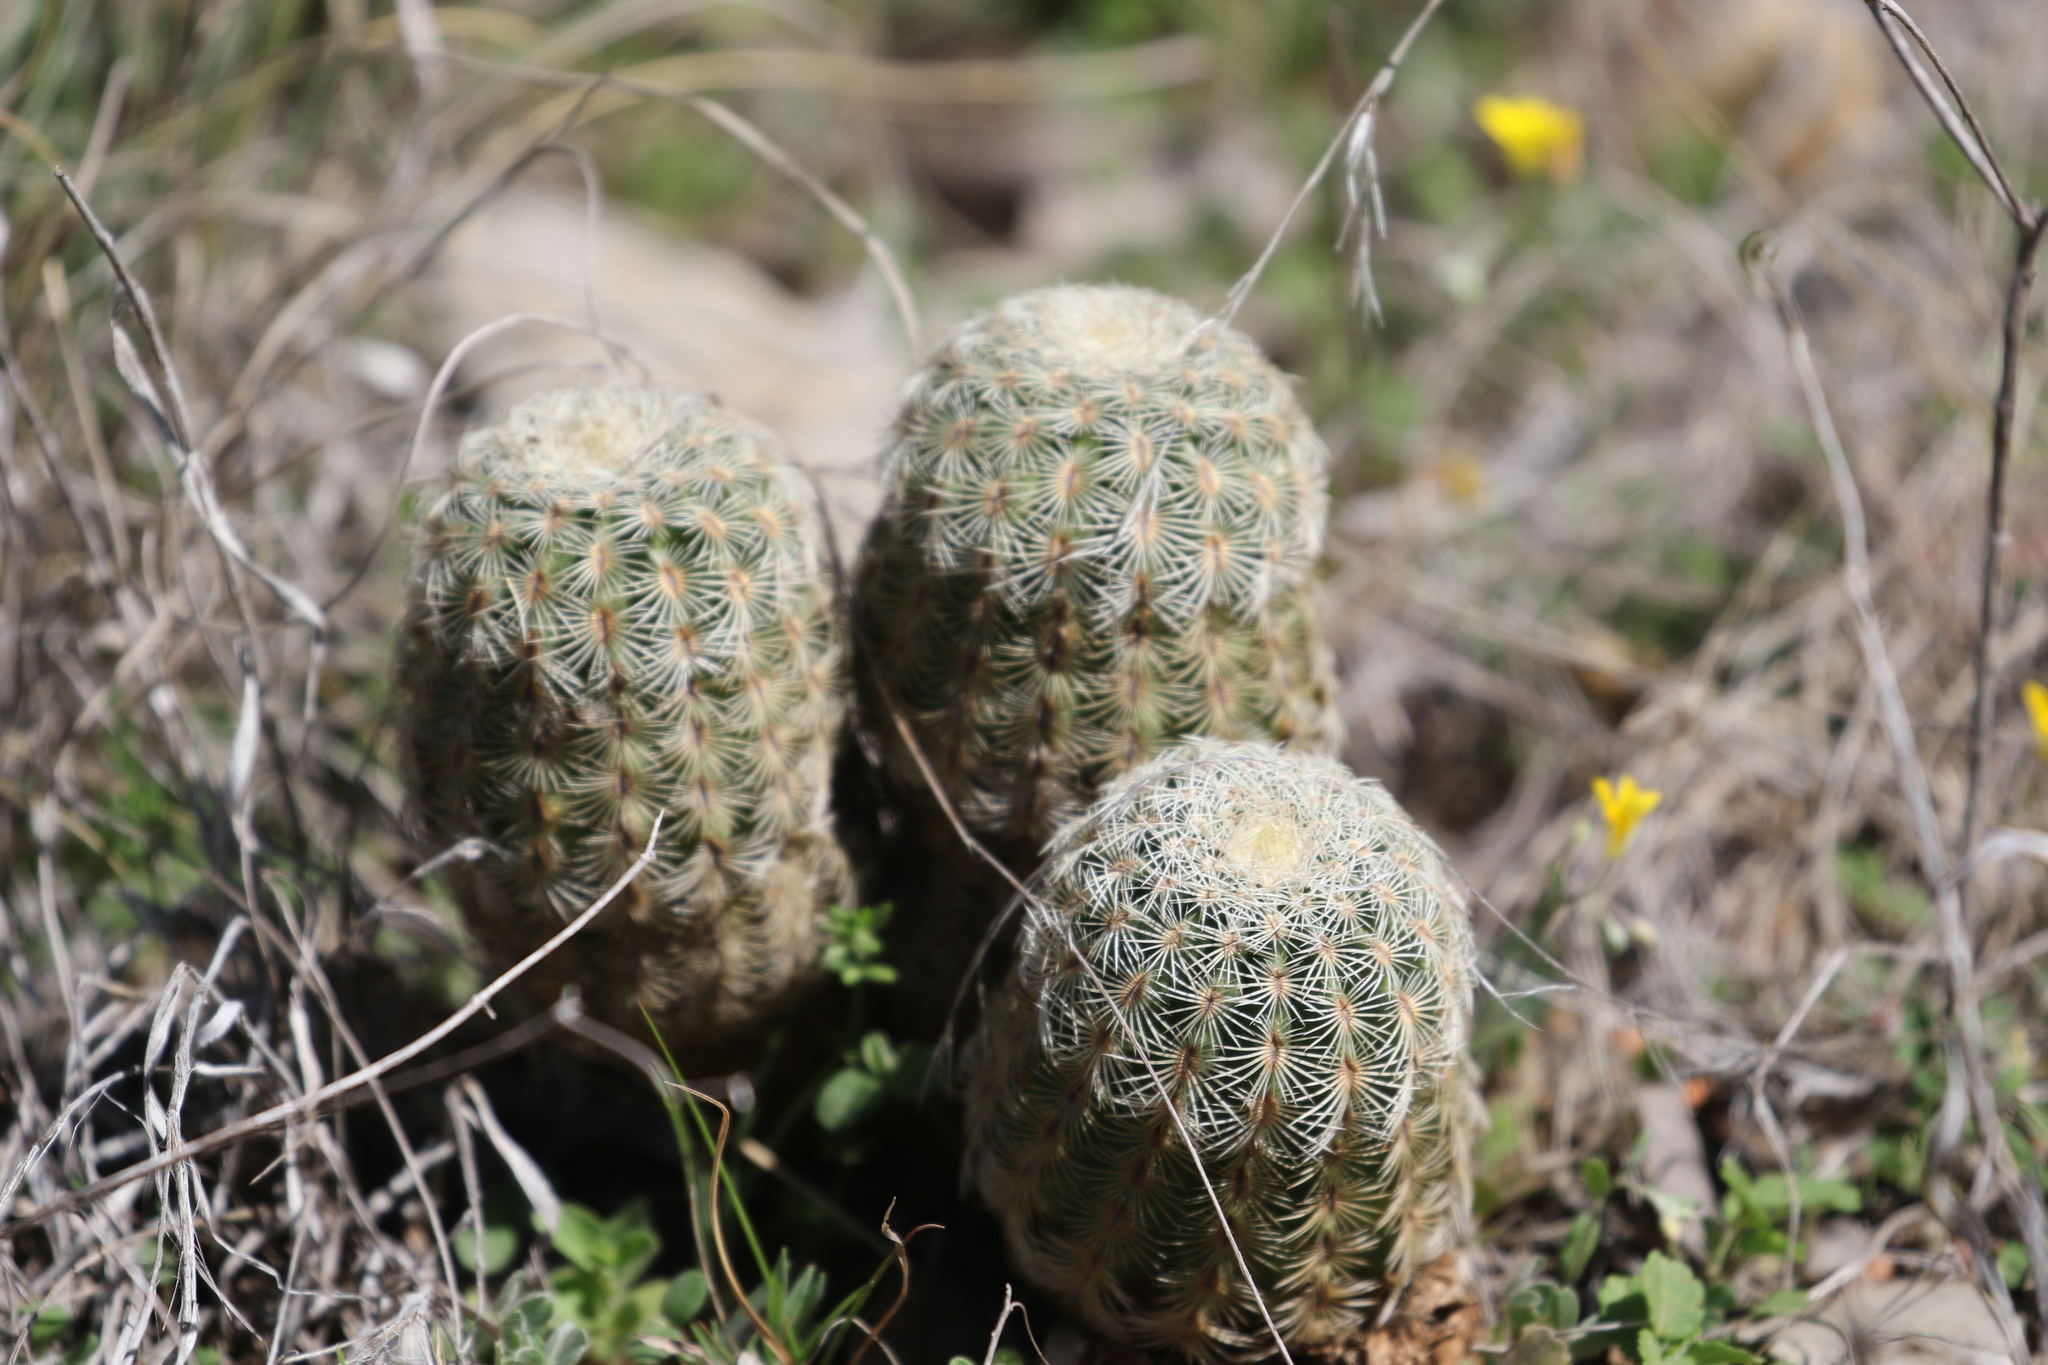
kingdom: Plantae
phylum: Tracheophyta
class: Magnoliopsida
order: Caryophyllales
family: Cactaceae
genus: Echinocereus
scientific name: Echinocereus reichenbachii
